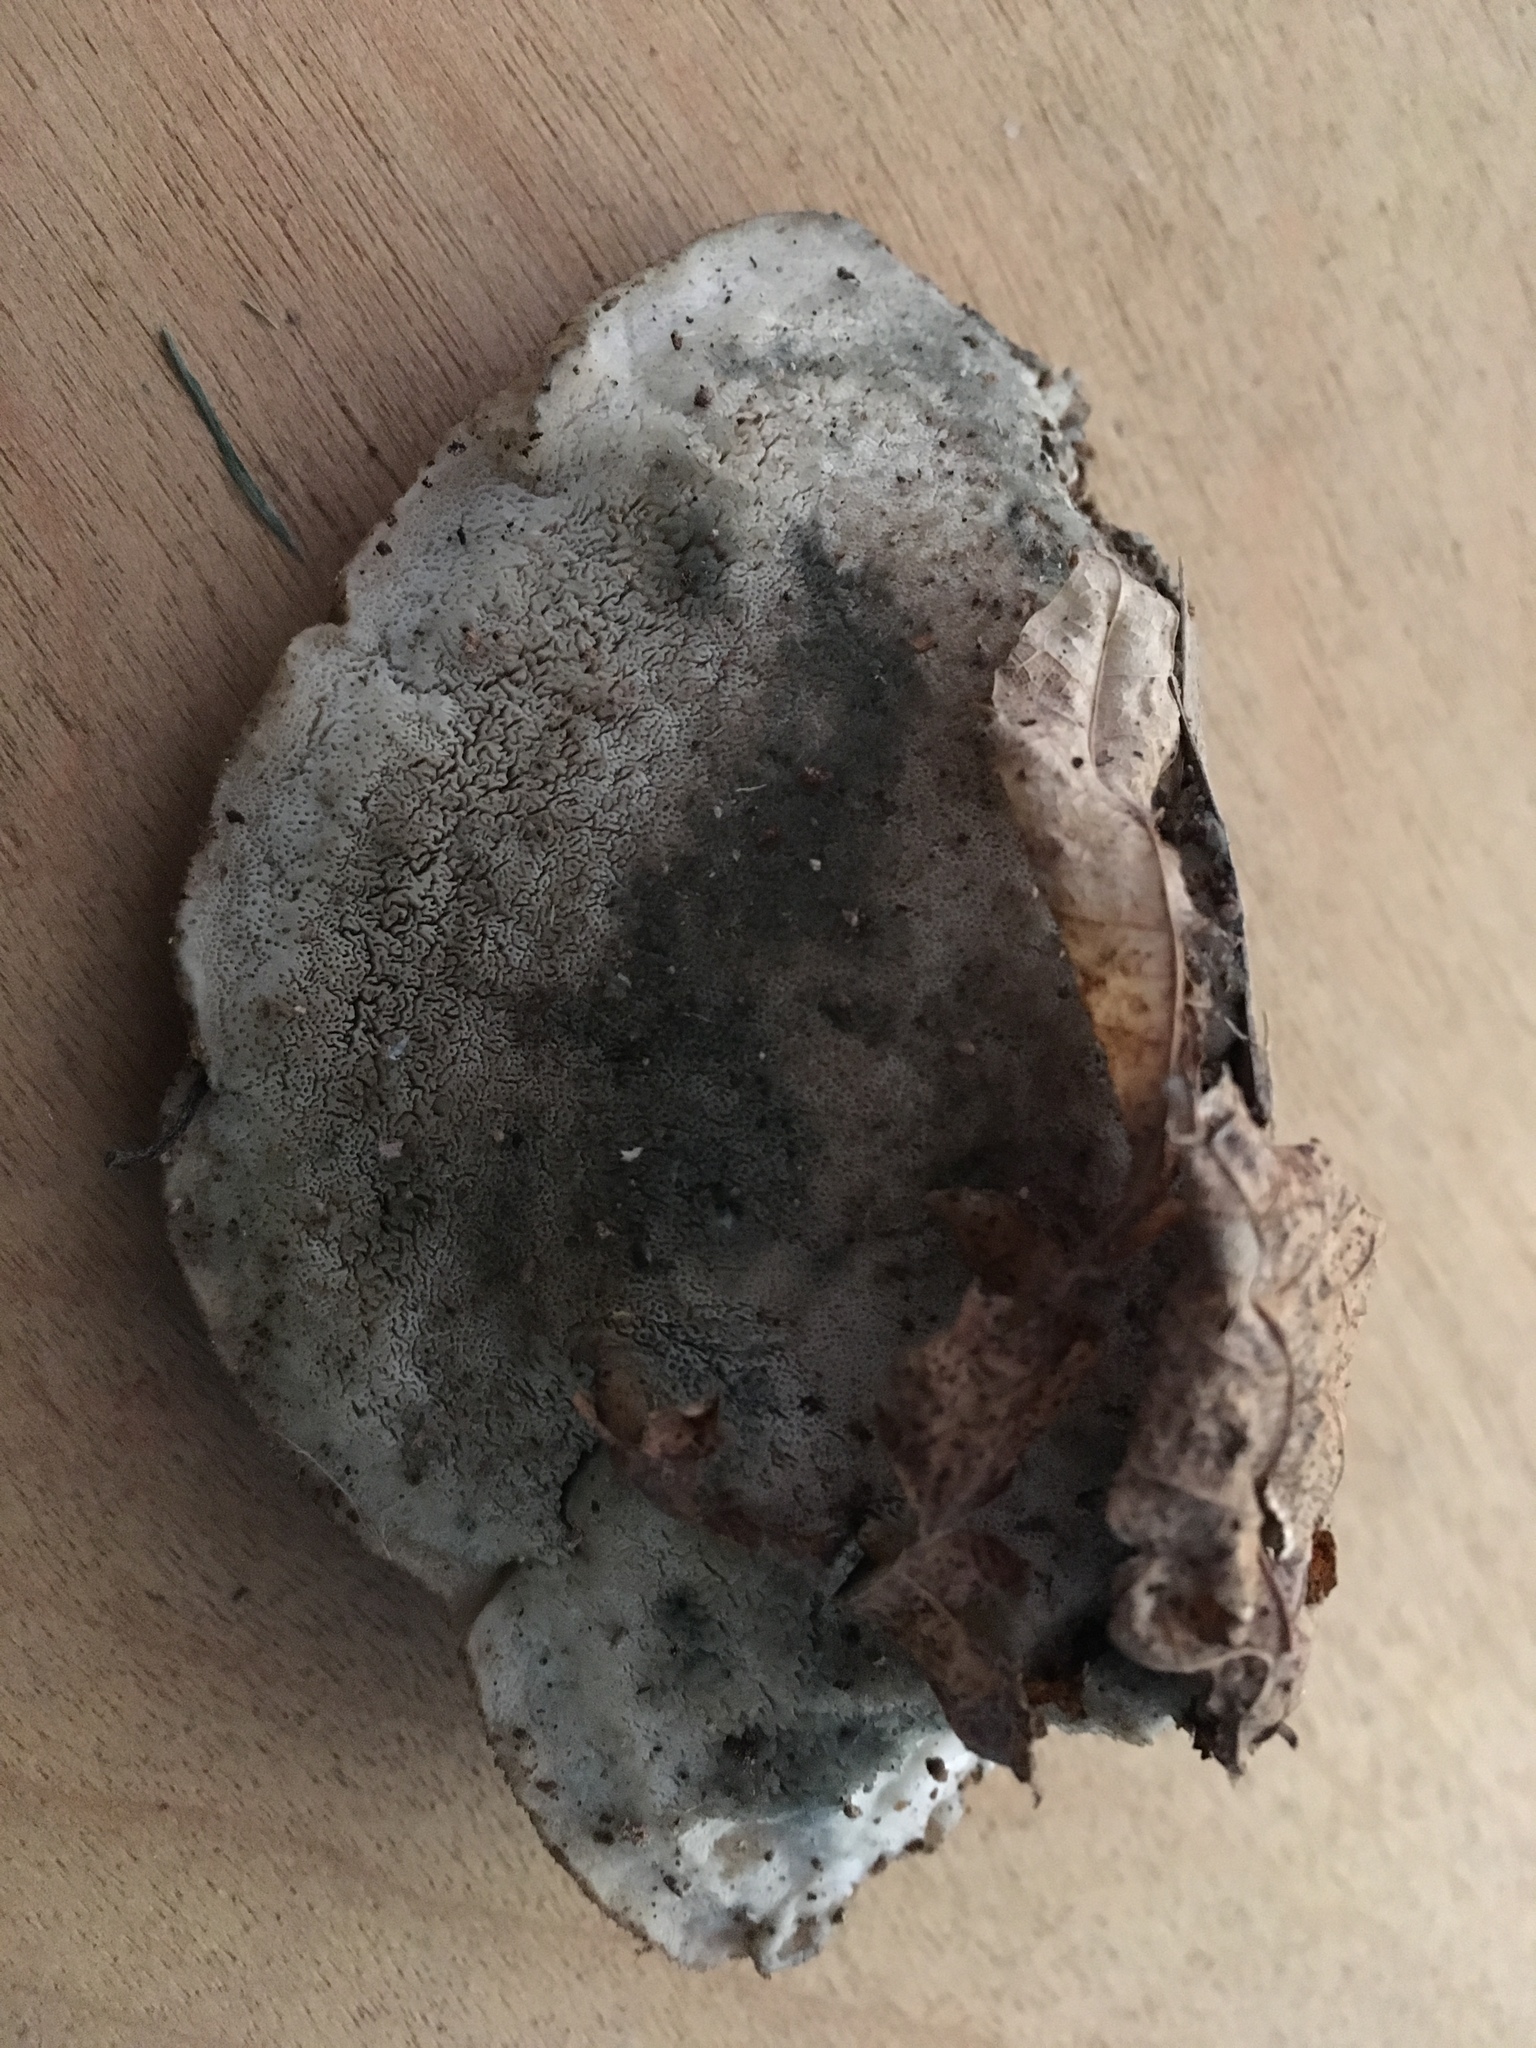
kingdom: Fungi
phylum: Basidiomycota
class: Agaricomycetes
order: Polyporales
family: Polyporaceae
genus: Cyanosporus
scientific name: Cyanosporus livens
